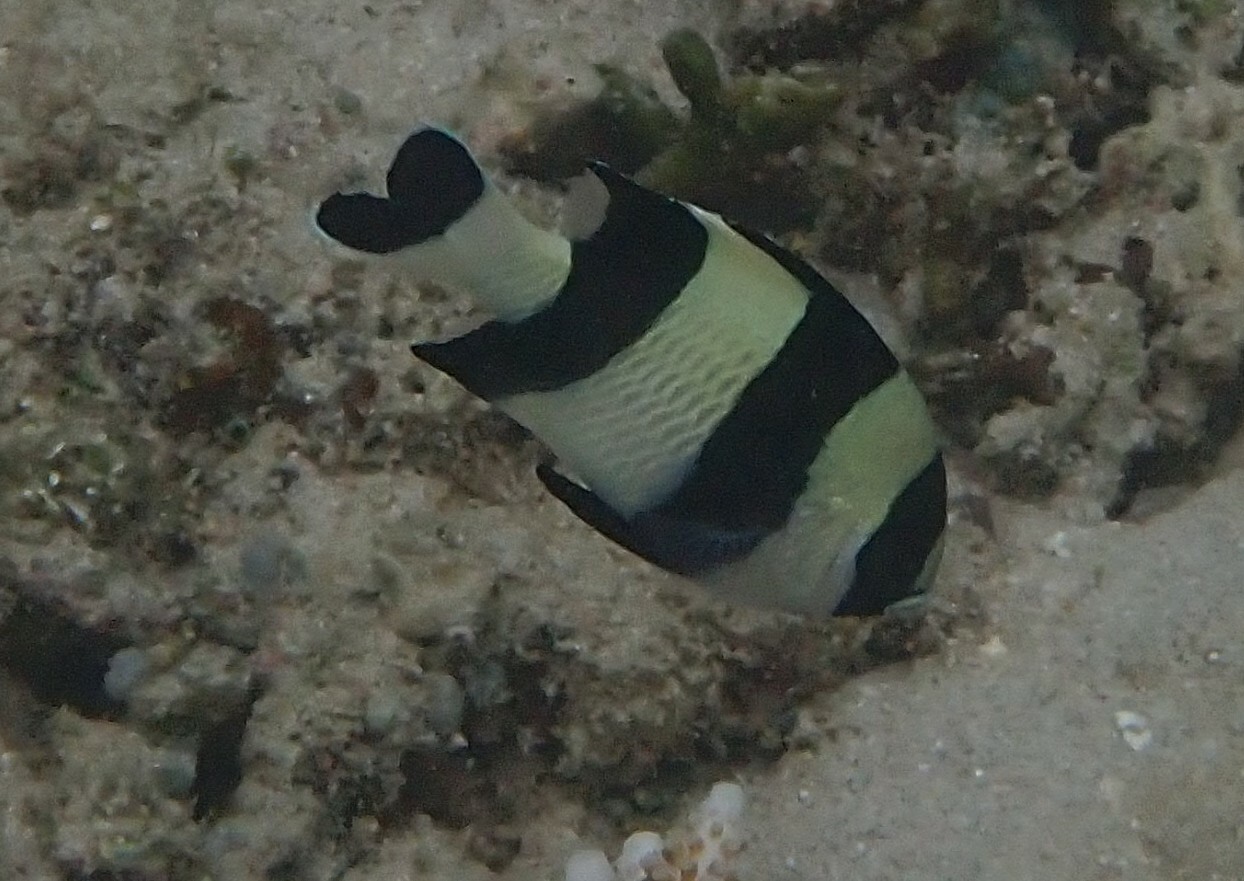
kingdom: Animalia
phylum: Chordata
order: Perciformes
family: Pomacentridae
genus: Dascyllus
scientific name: Dascyllus melanurus
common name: Black-tail dascyllus
